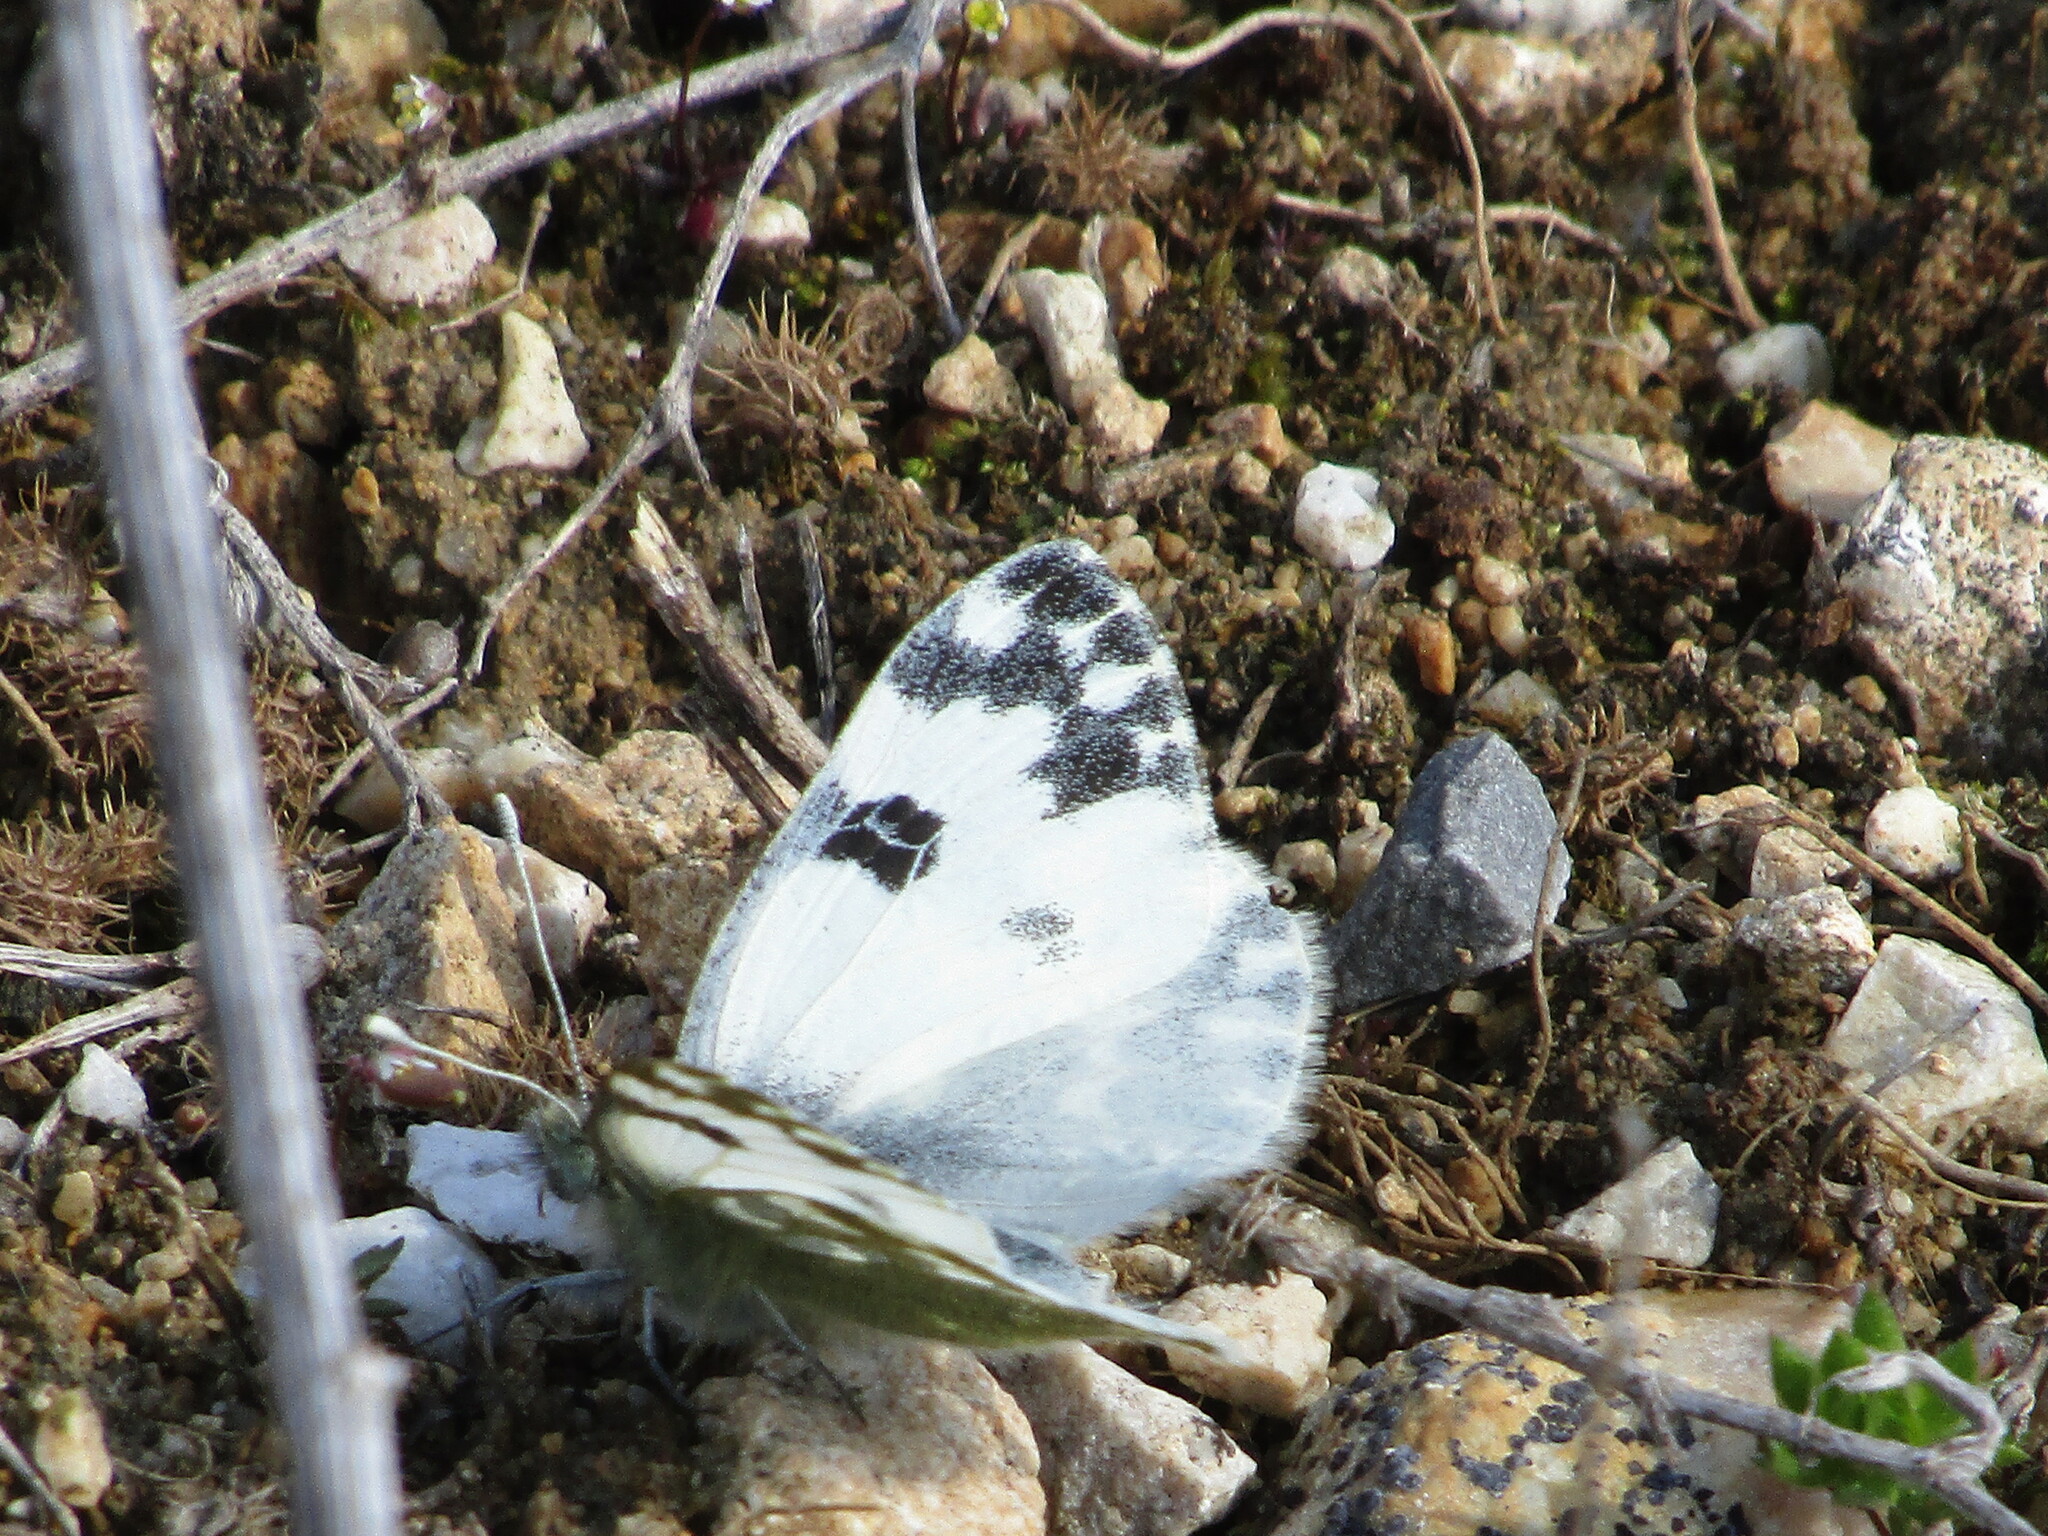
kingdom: Animalia
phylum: Arthropoda
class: Insecta
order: Lepidoptera
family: Pieridae
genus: Pontia
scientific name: Pontia edusa
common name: Eastern bath white
